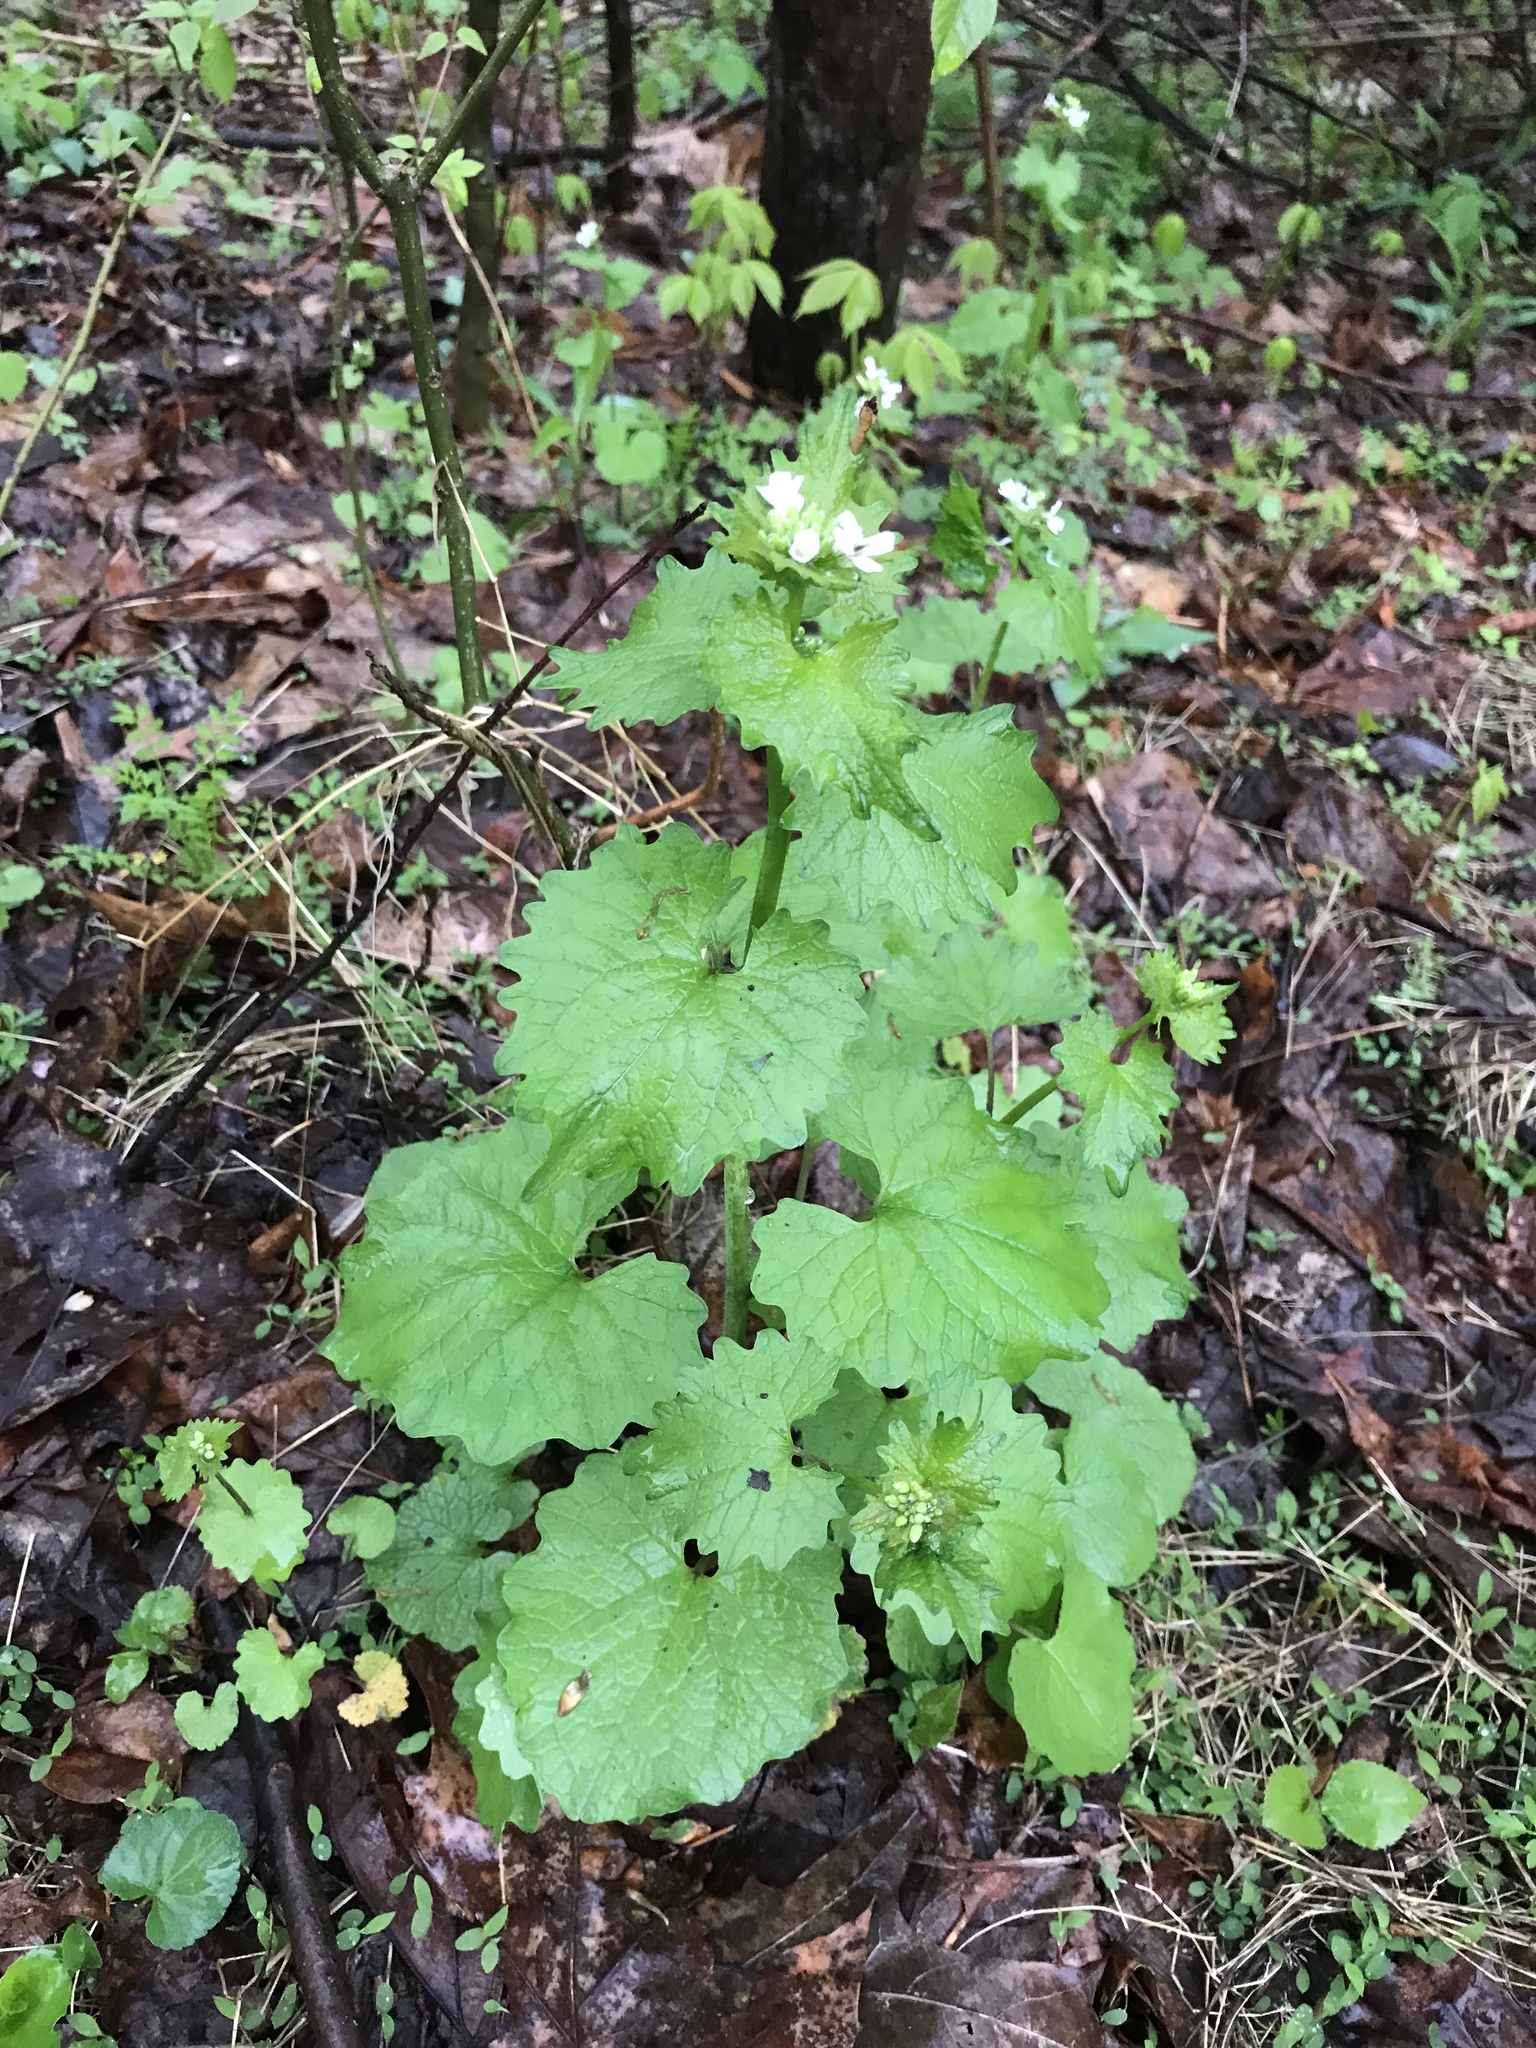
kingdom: Plantae
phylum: Tracheophyta
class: Magnoliopsida
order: Brassicales
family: Brassicaceae
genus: Alliaria
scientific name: Alliaria petiolata
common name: Garlic mustard
